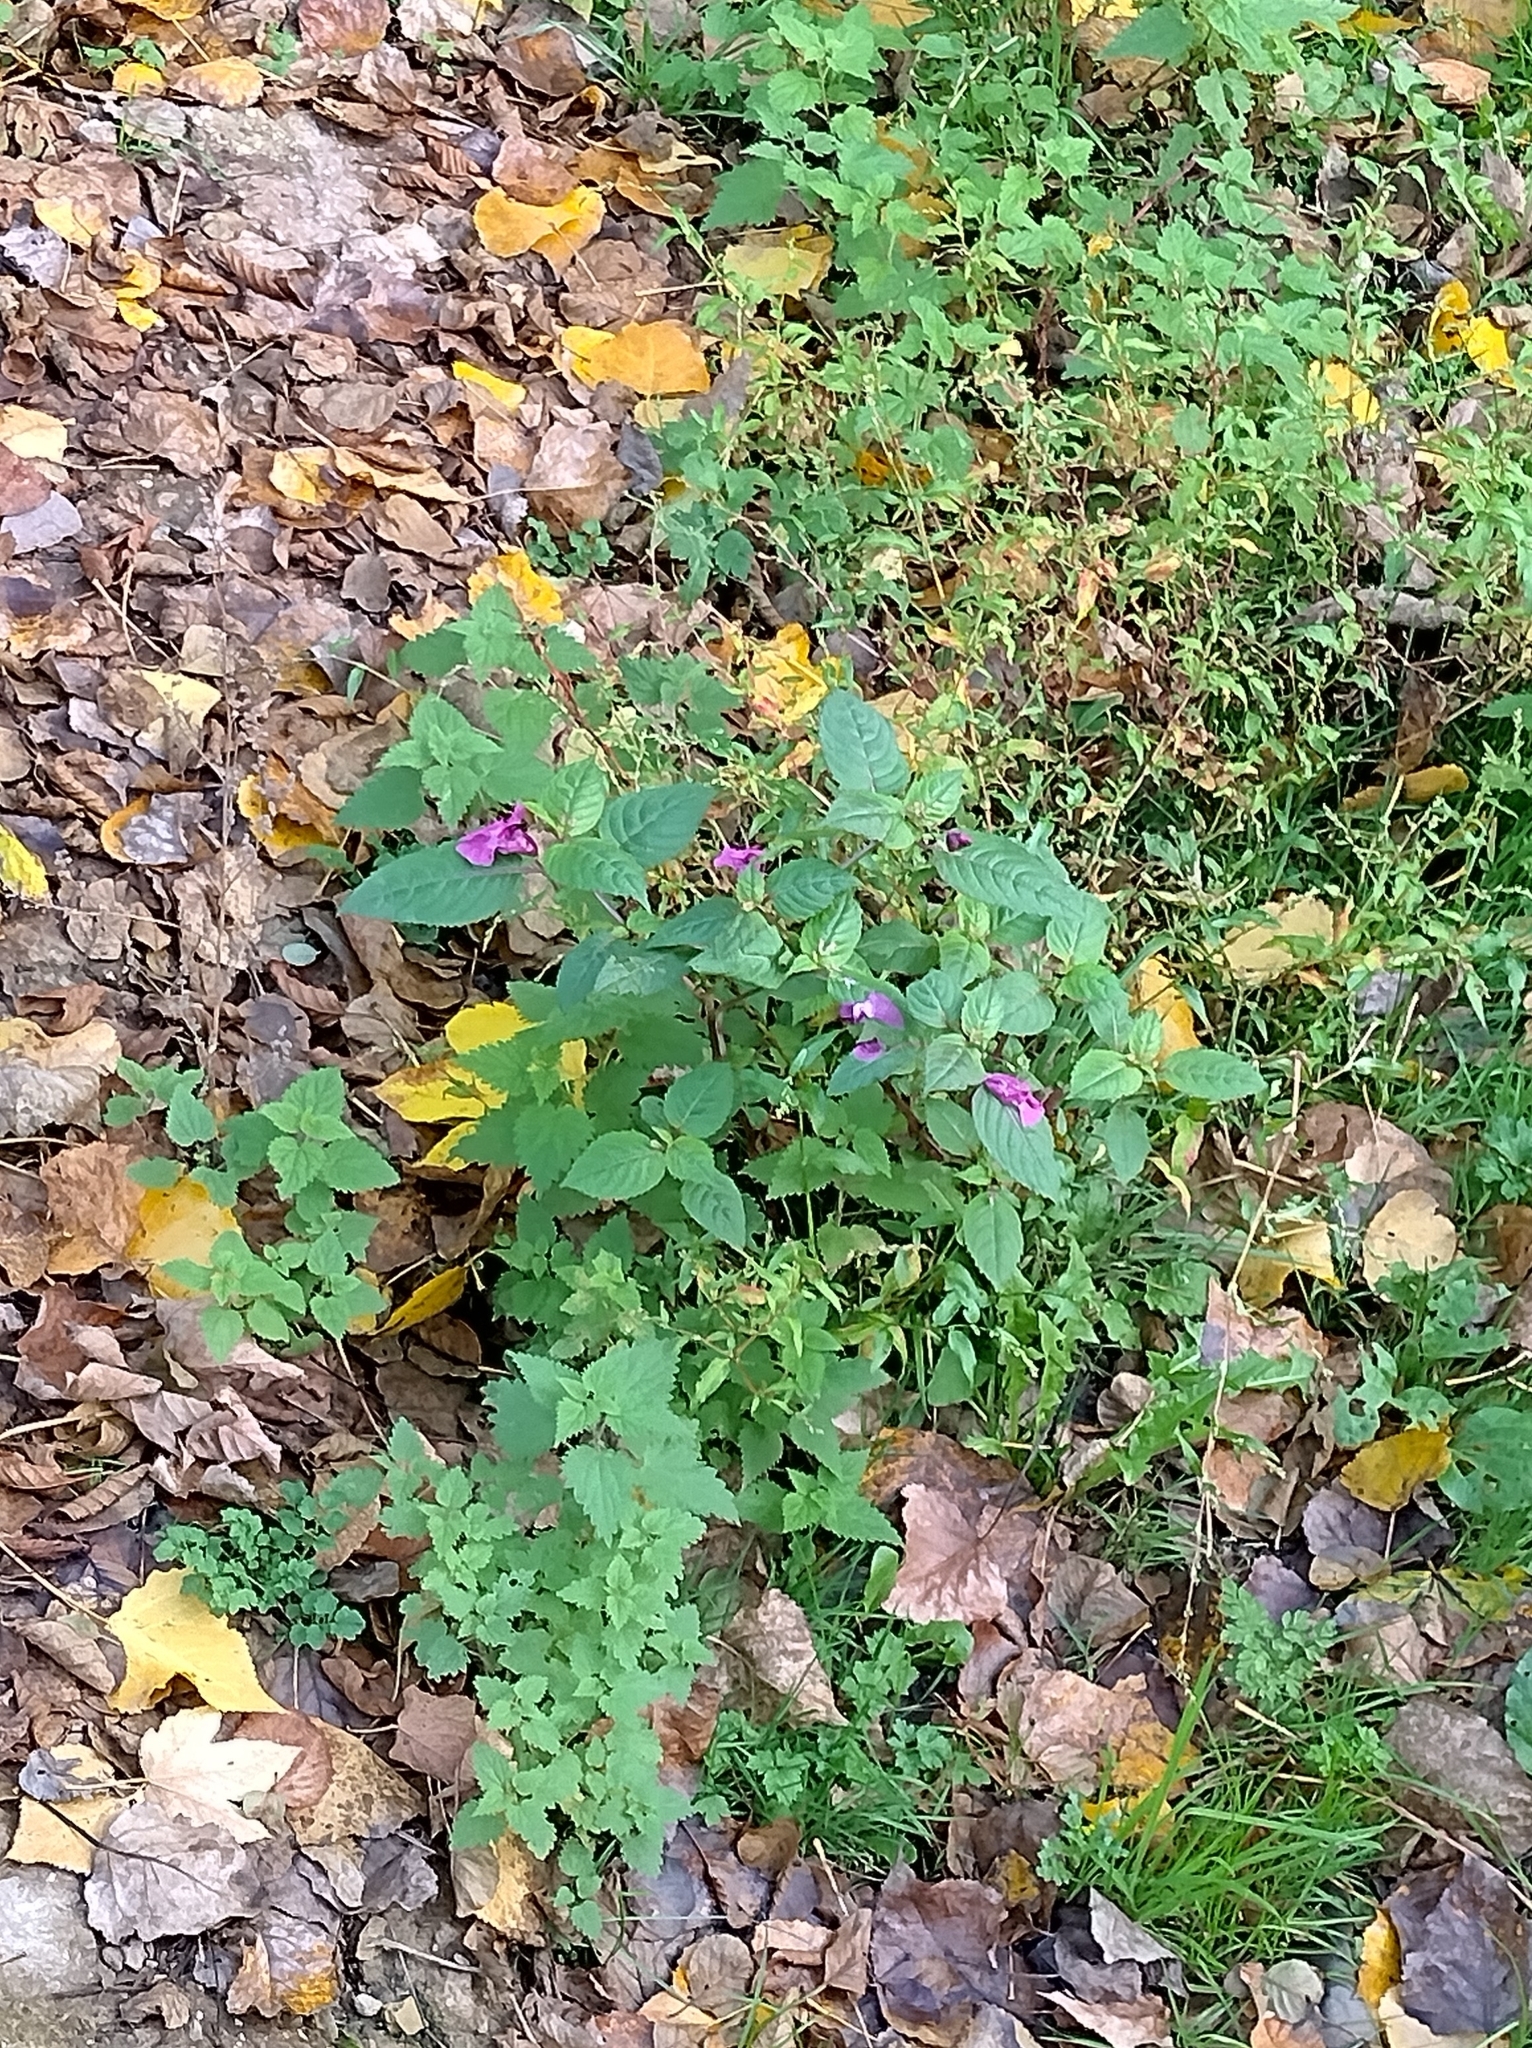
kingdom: Plantae
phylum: Tracheophyta
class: Magnoliopsida
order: Ericales
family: Balsaminaceae
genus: Impatiens
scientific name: Impatiens glandulifera
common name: Himalayan balsam
